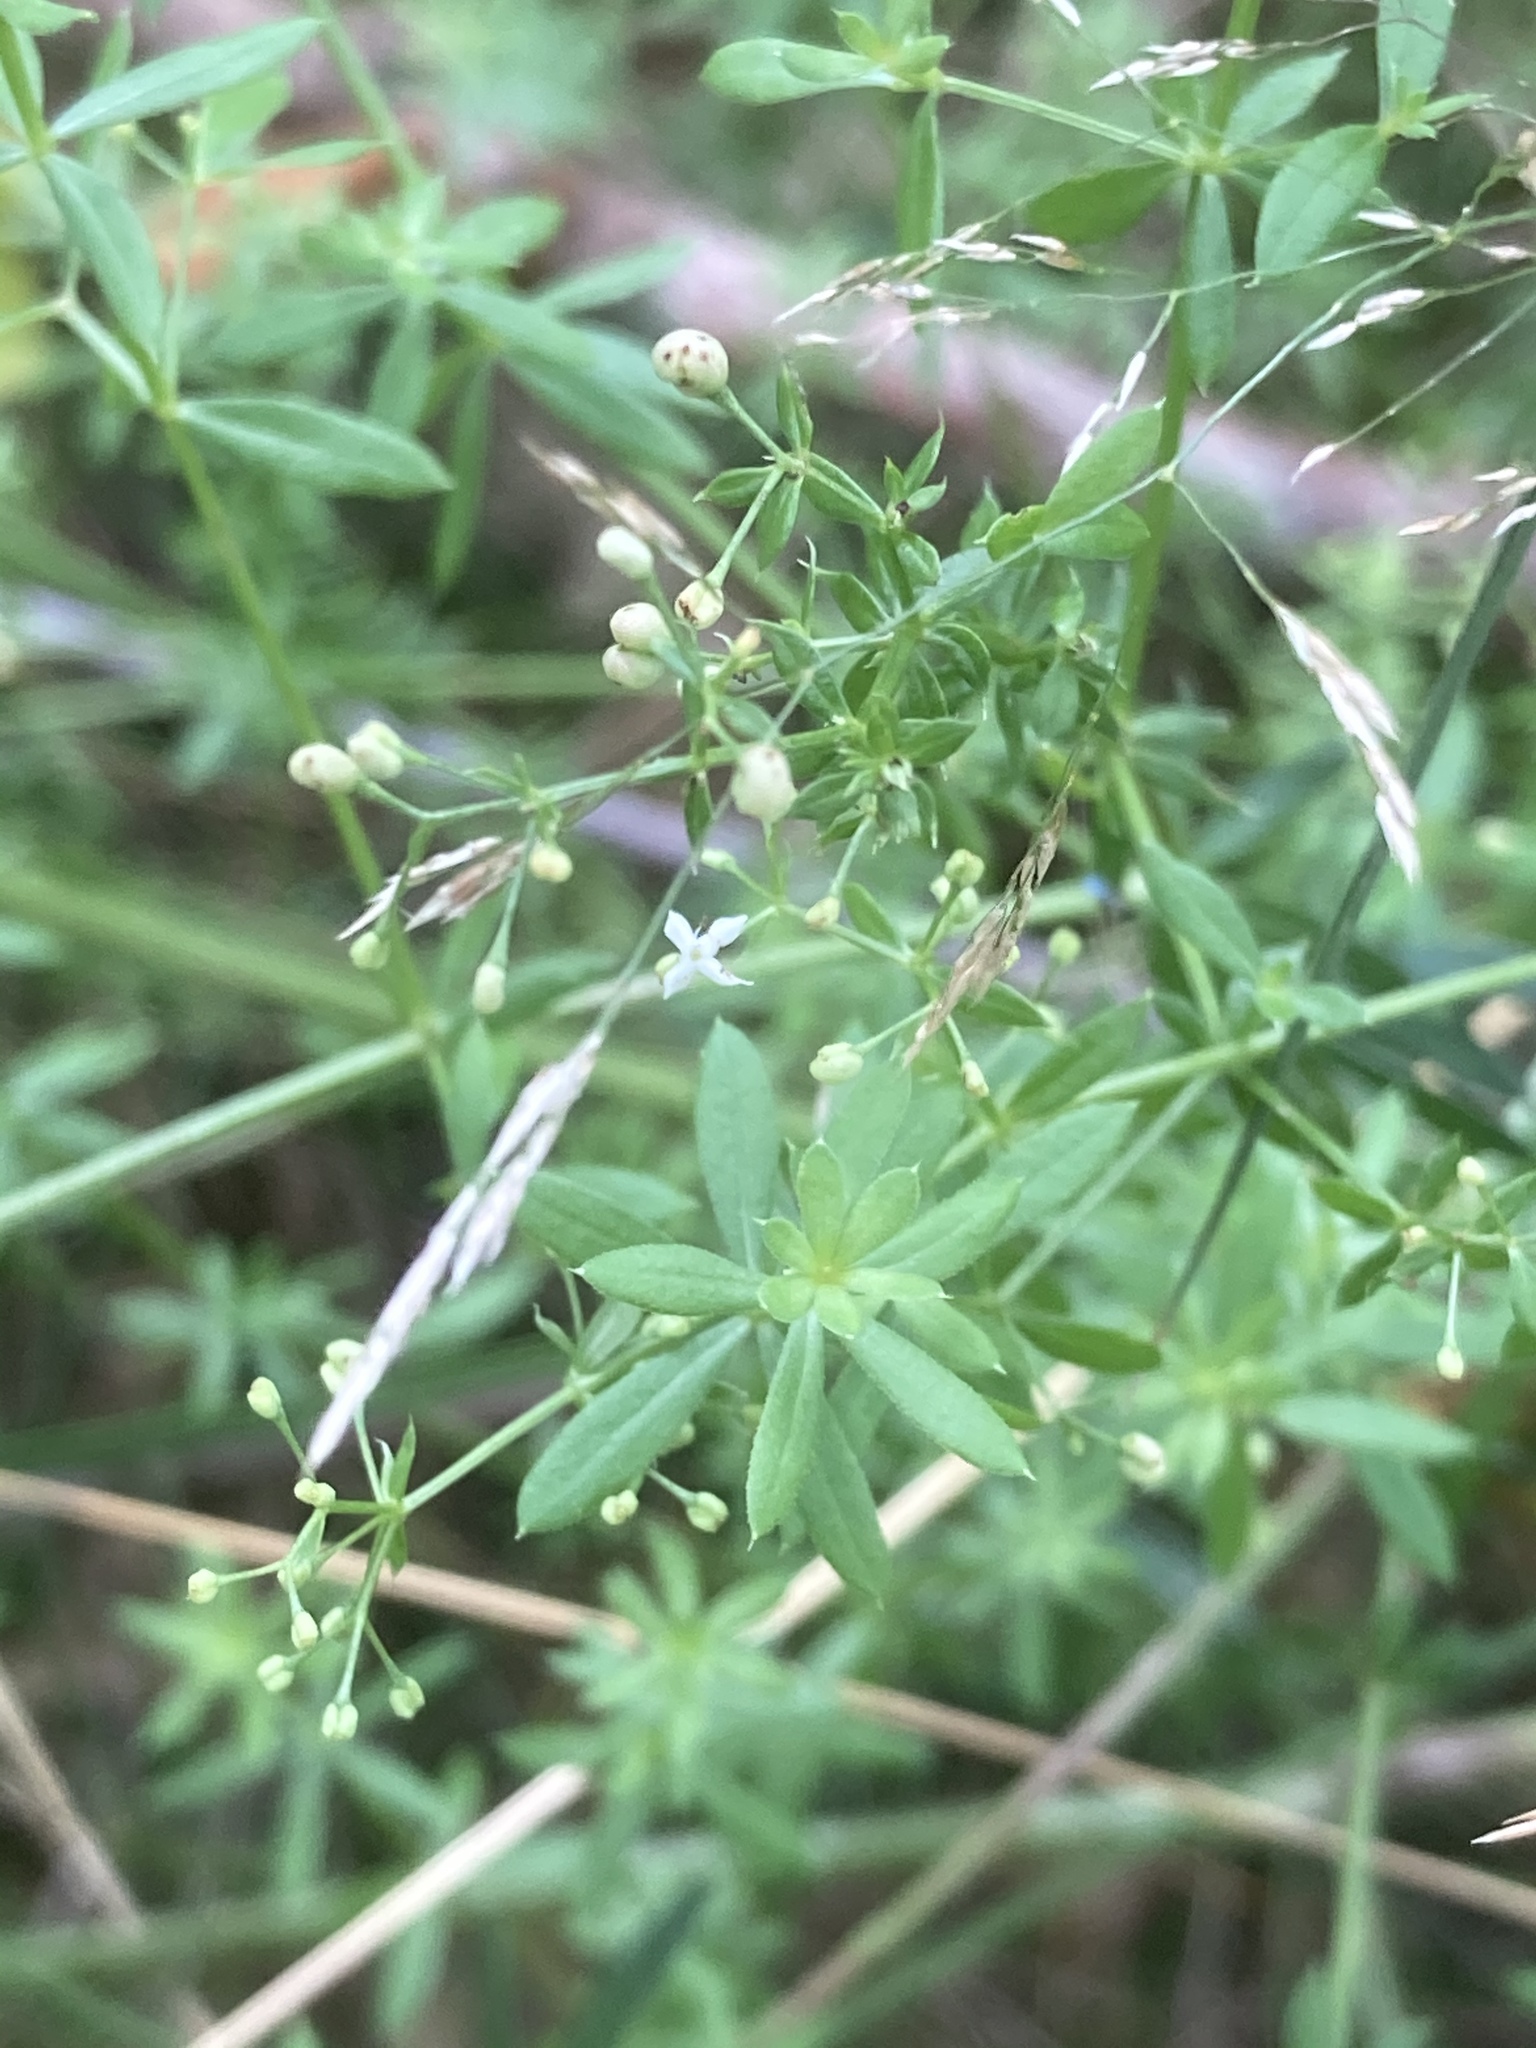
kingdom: Plantae
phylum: Tracheophyta
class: Magnoliopsida
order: Gentianales
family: Rubiaceae
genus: Galium
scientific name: Galium album
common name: White bedstraw
